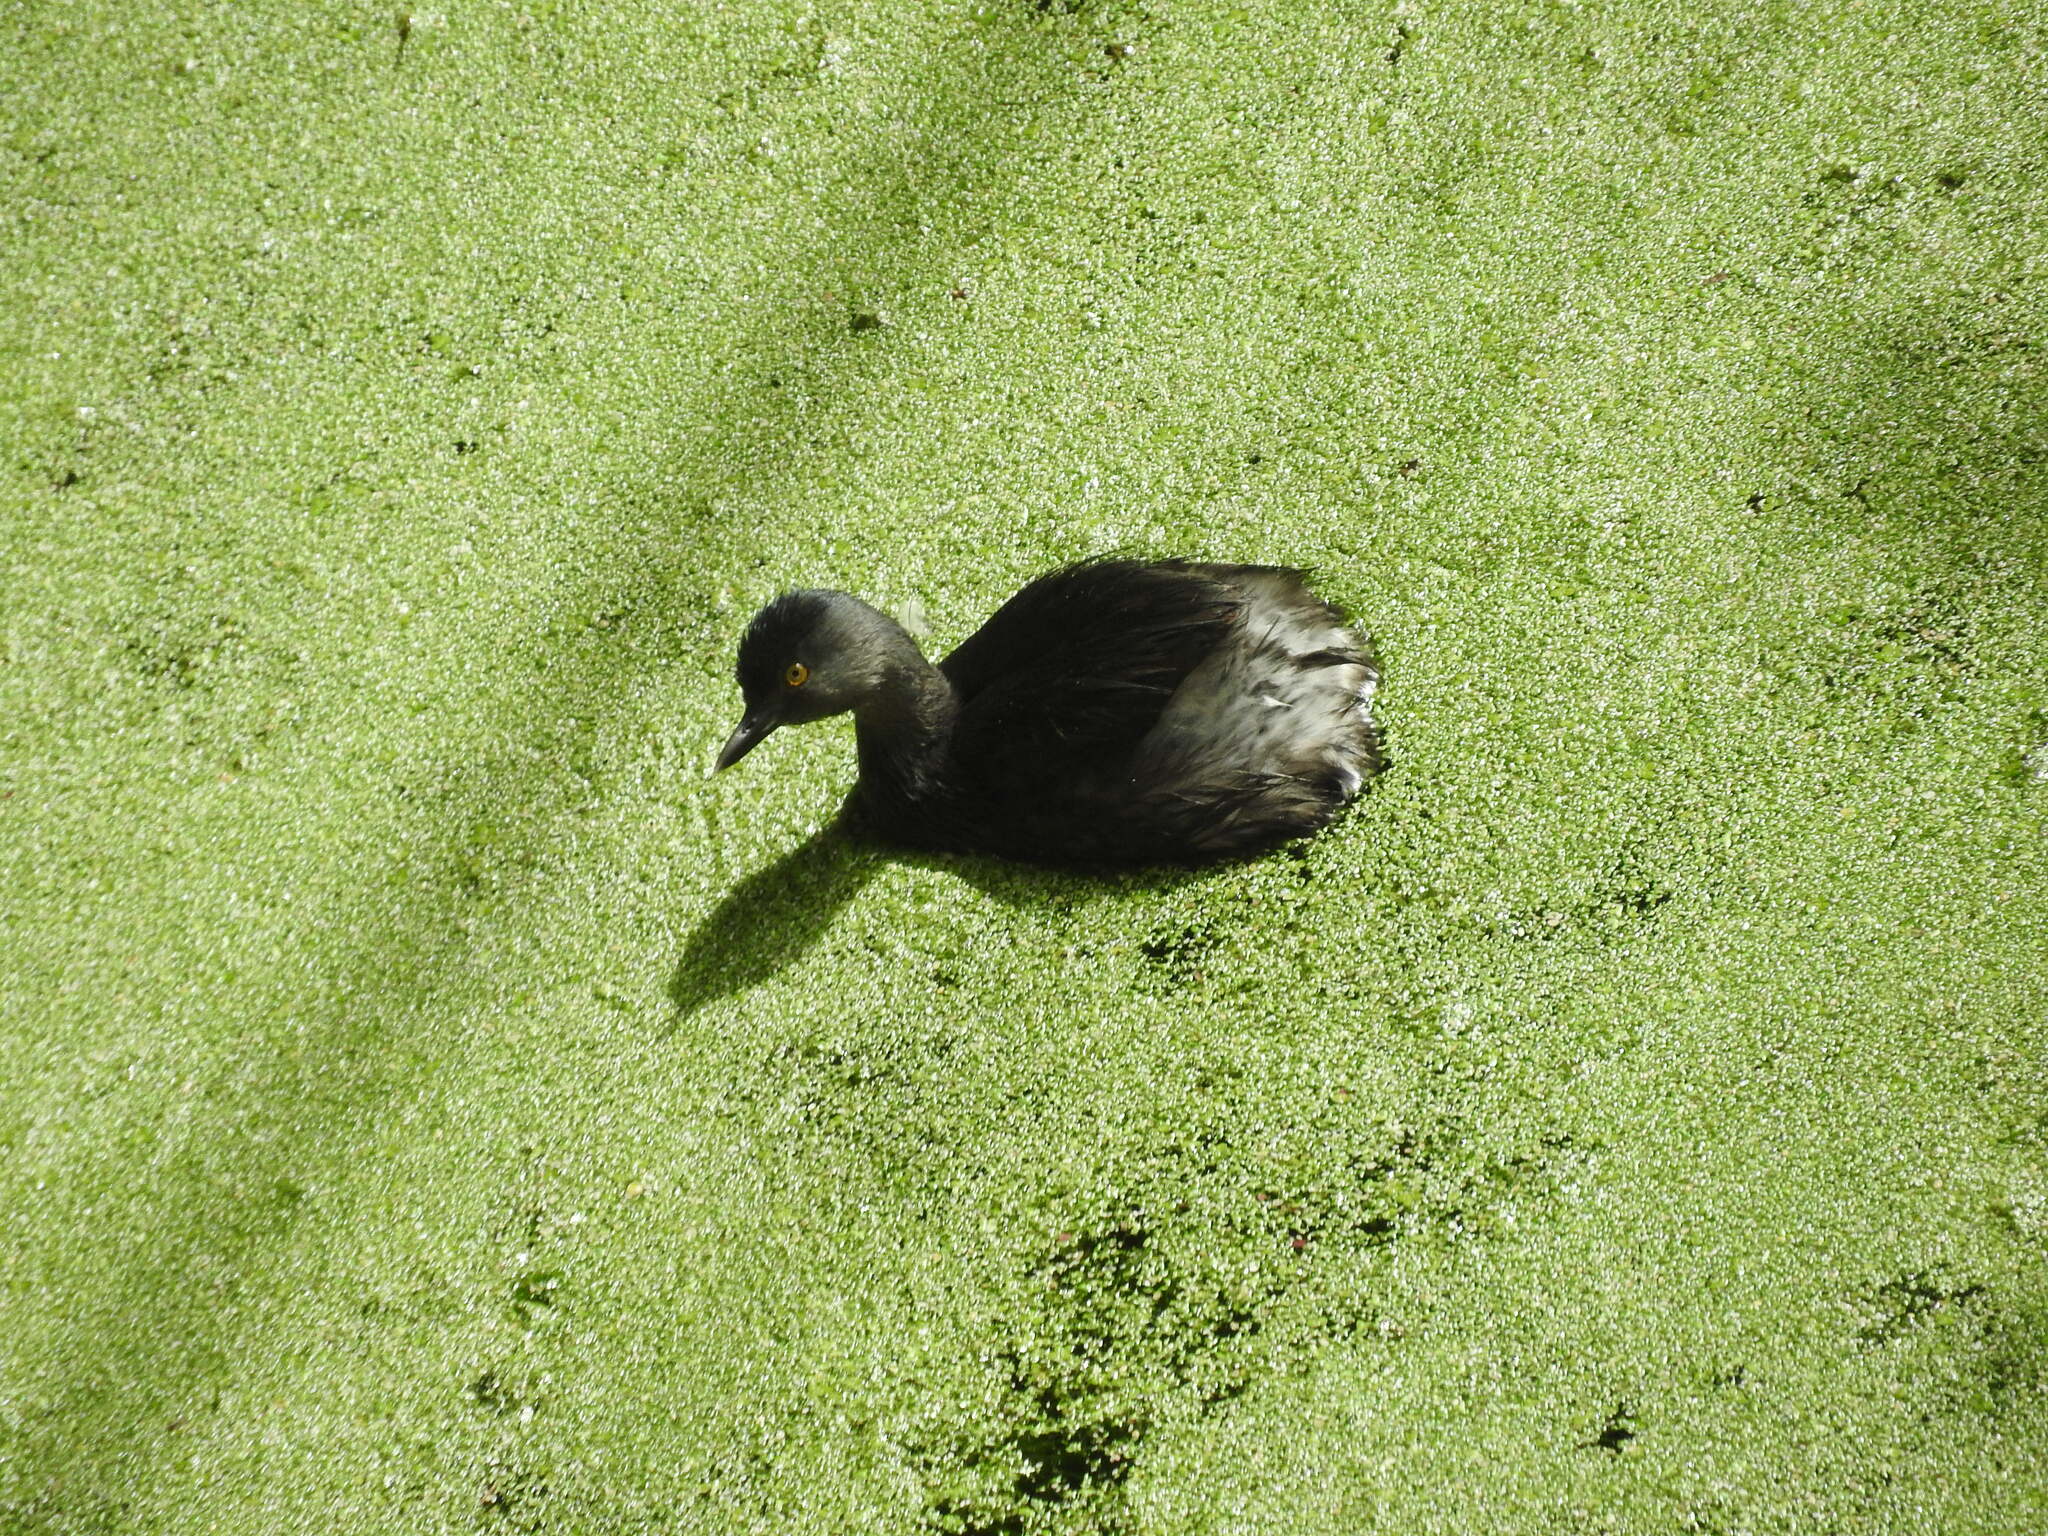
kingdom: Animalia
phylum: Chordata
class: Aves
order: Podicipediformes
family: Podicipedidae
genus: Tachybaptus
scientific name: Tachybaptus dominicus
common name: Least grebe
